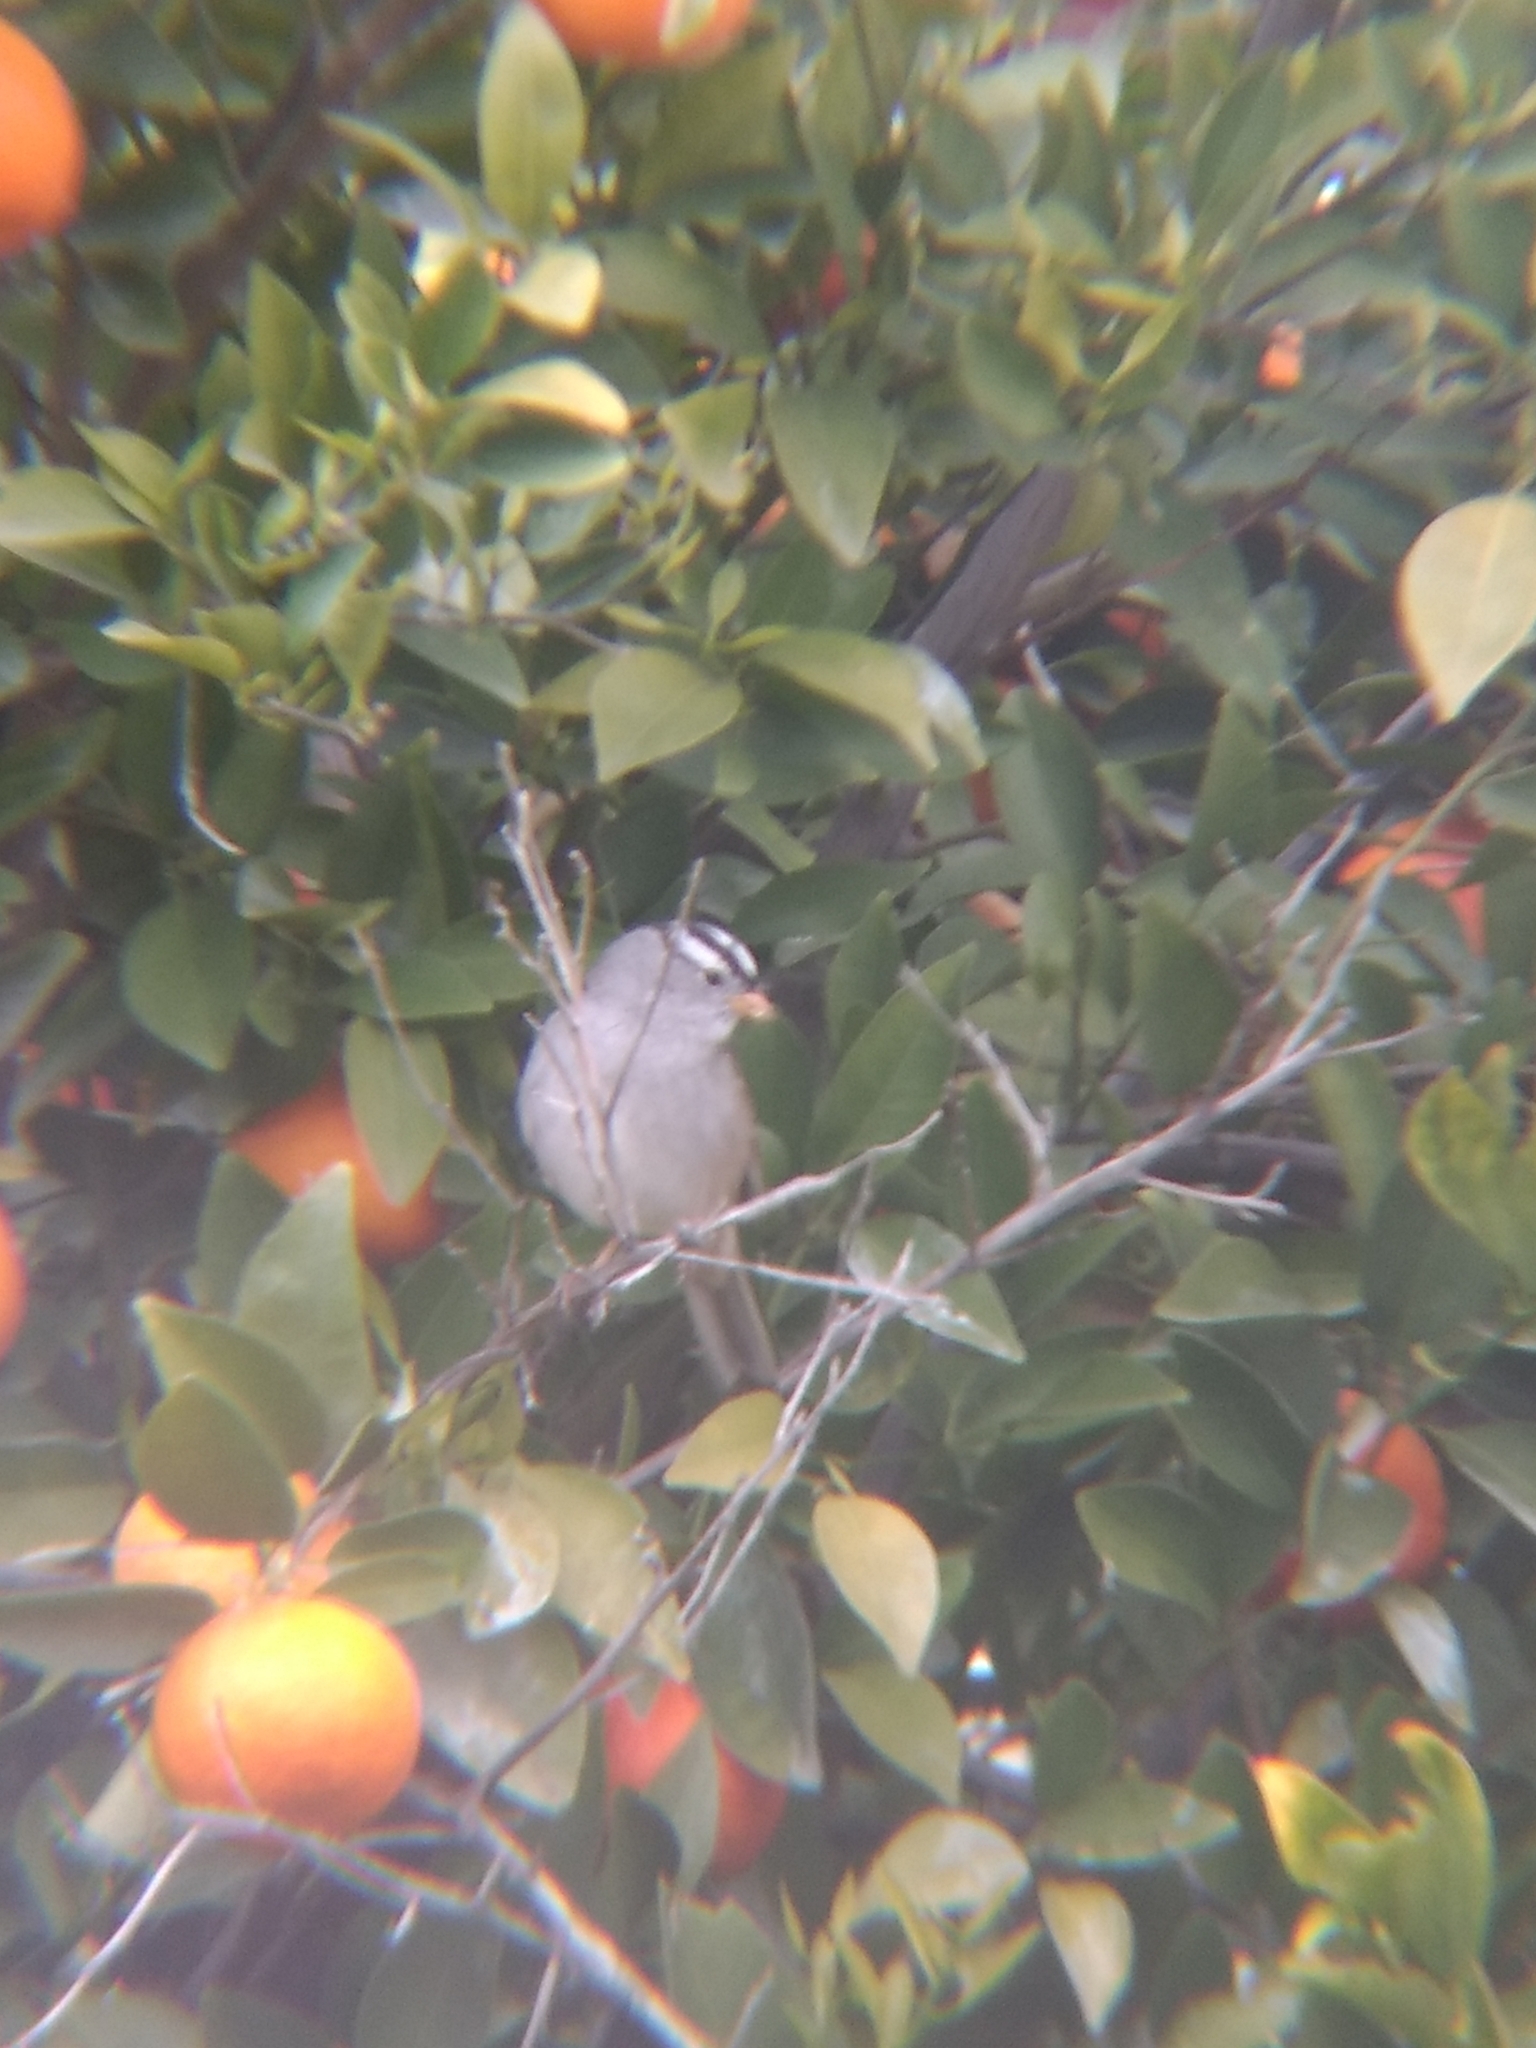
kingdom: Animalia
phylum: Chordata
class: Aves
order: Passeriformes
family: Passerellidae
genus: Zonotrichia
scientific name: Zonotrichia leucophrys
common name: White-crowned sparrow
